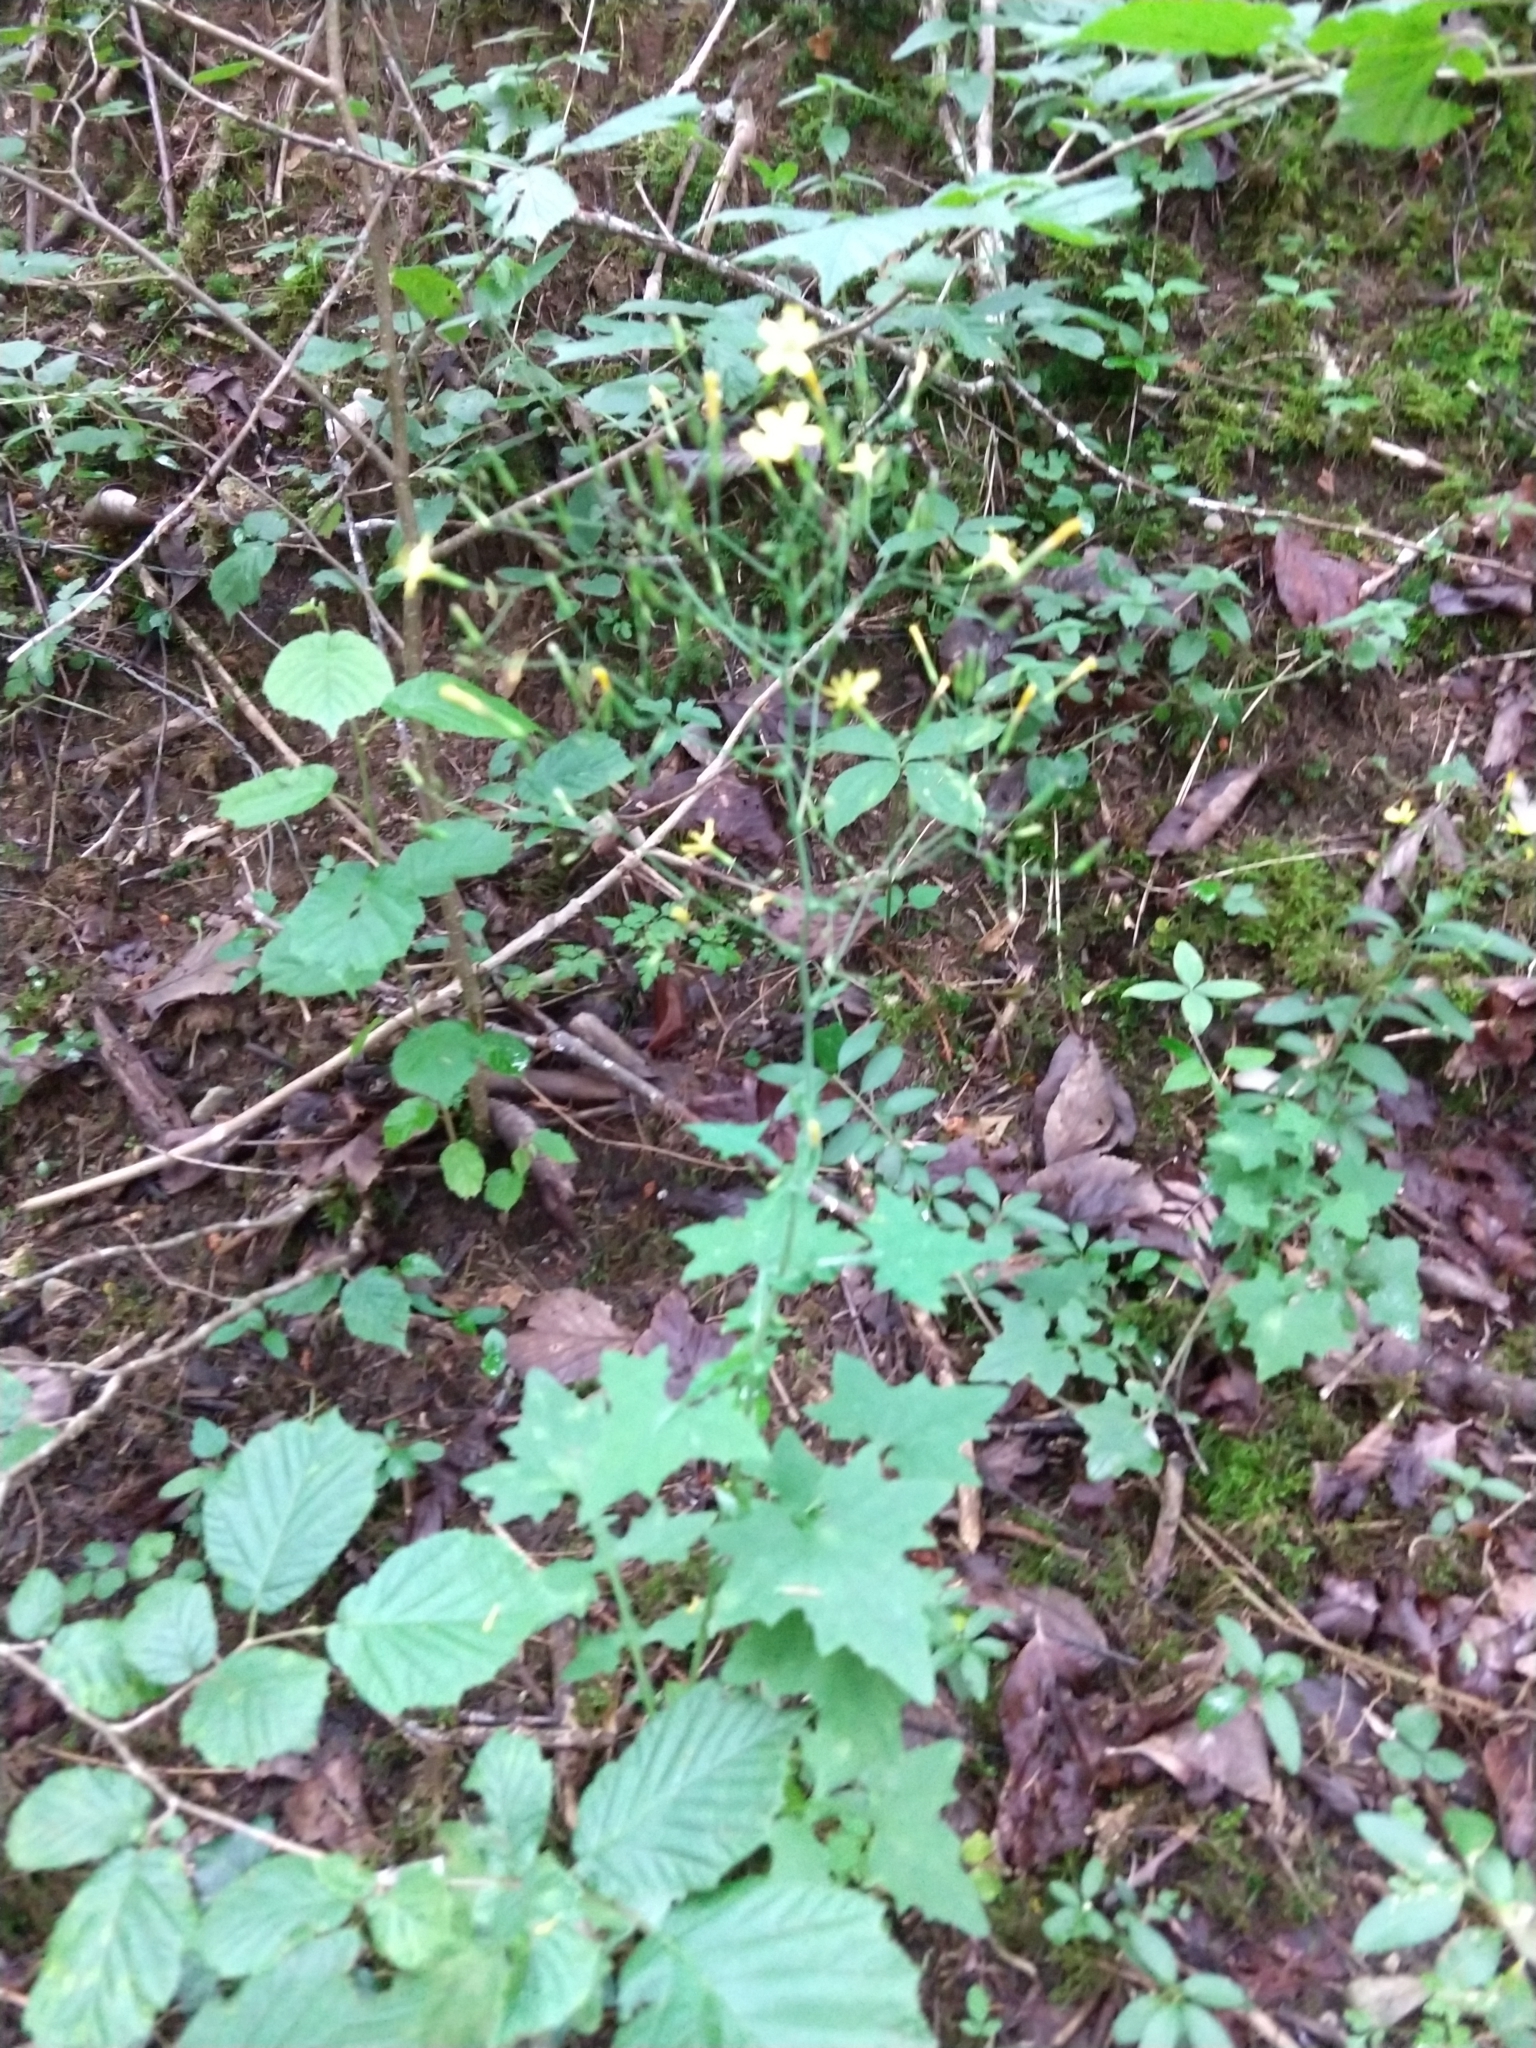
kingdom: Plantae
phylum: Tracheophyta
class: Magnoliopsida
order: Asterales
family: Asteraceae
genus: Mycelis
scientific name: Mycelis muralis
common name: Wall lettuce
